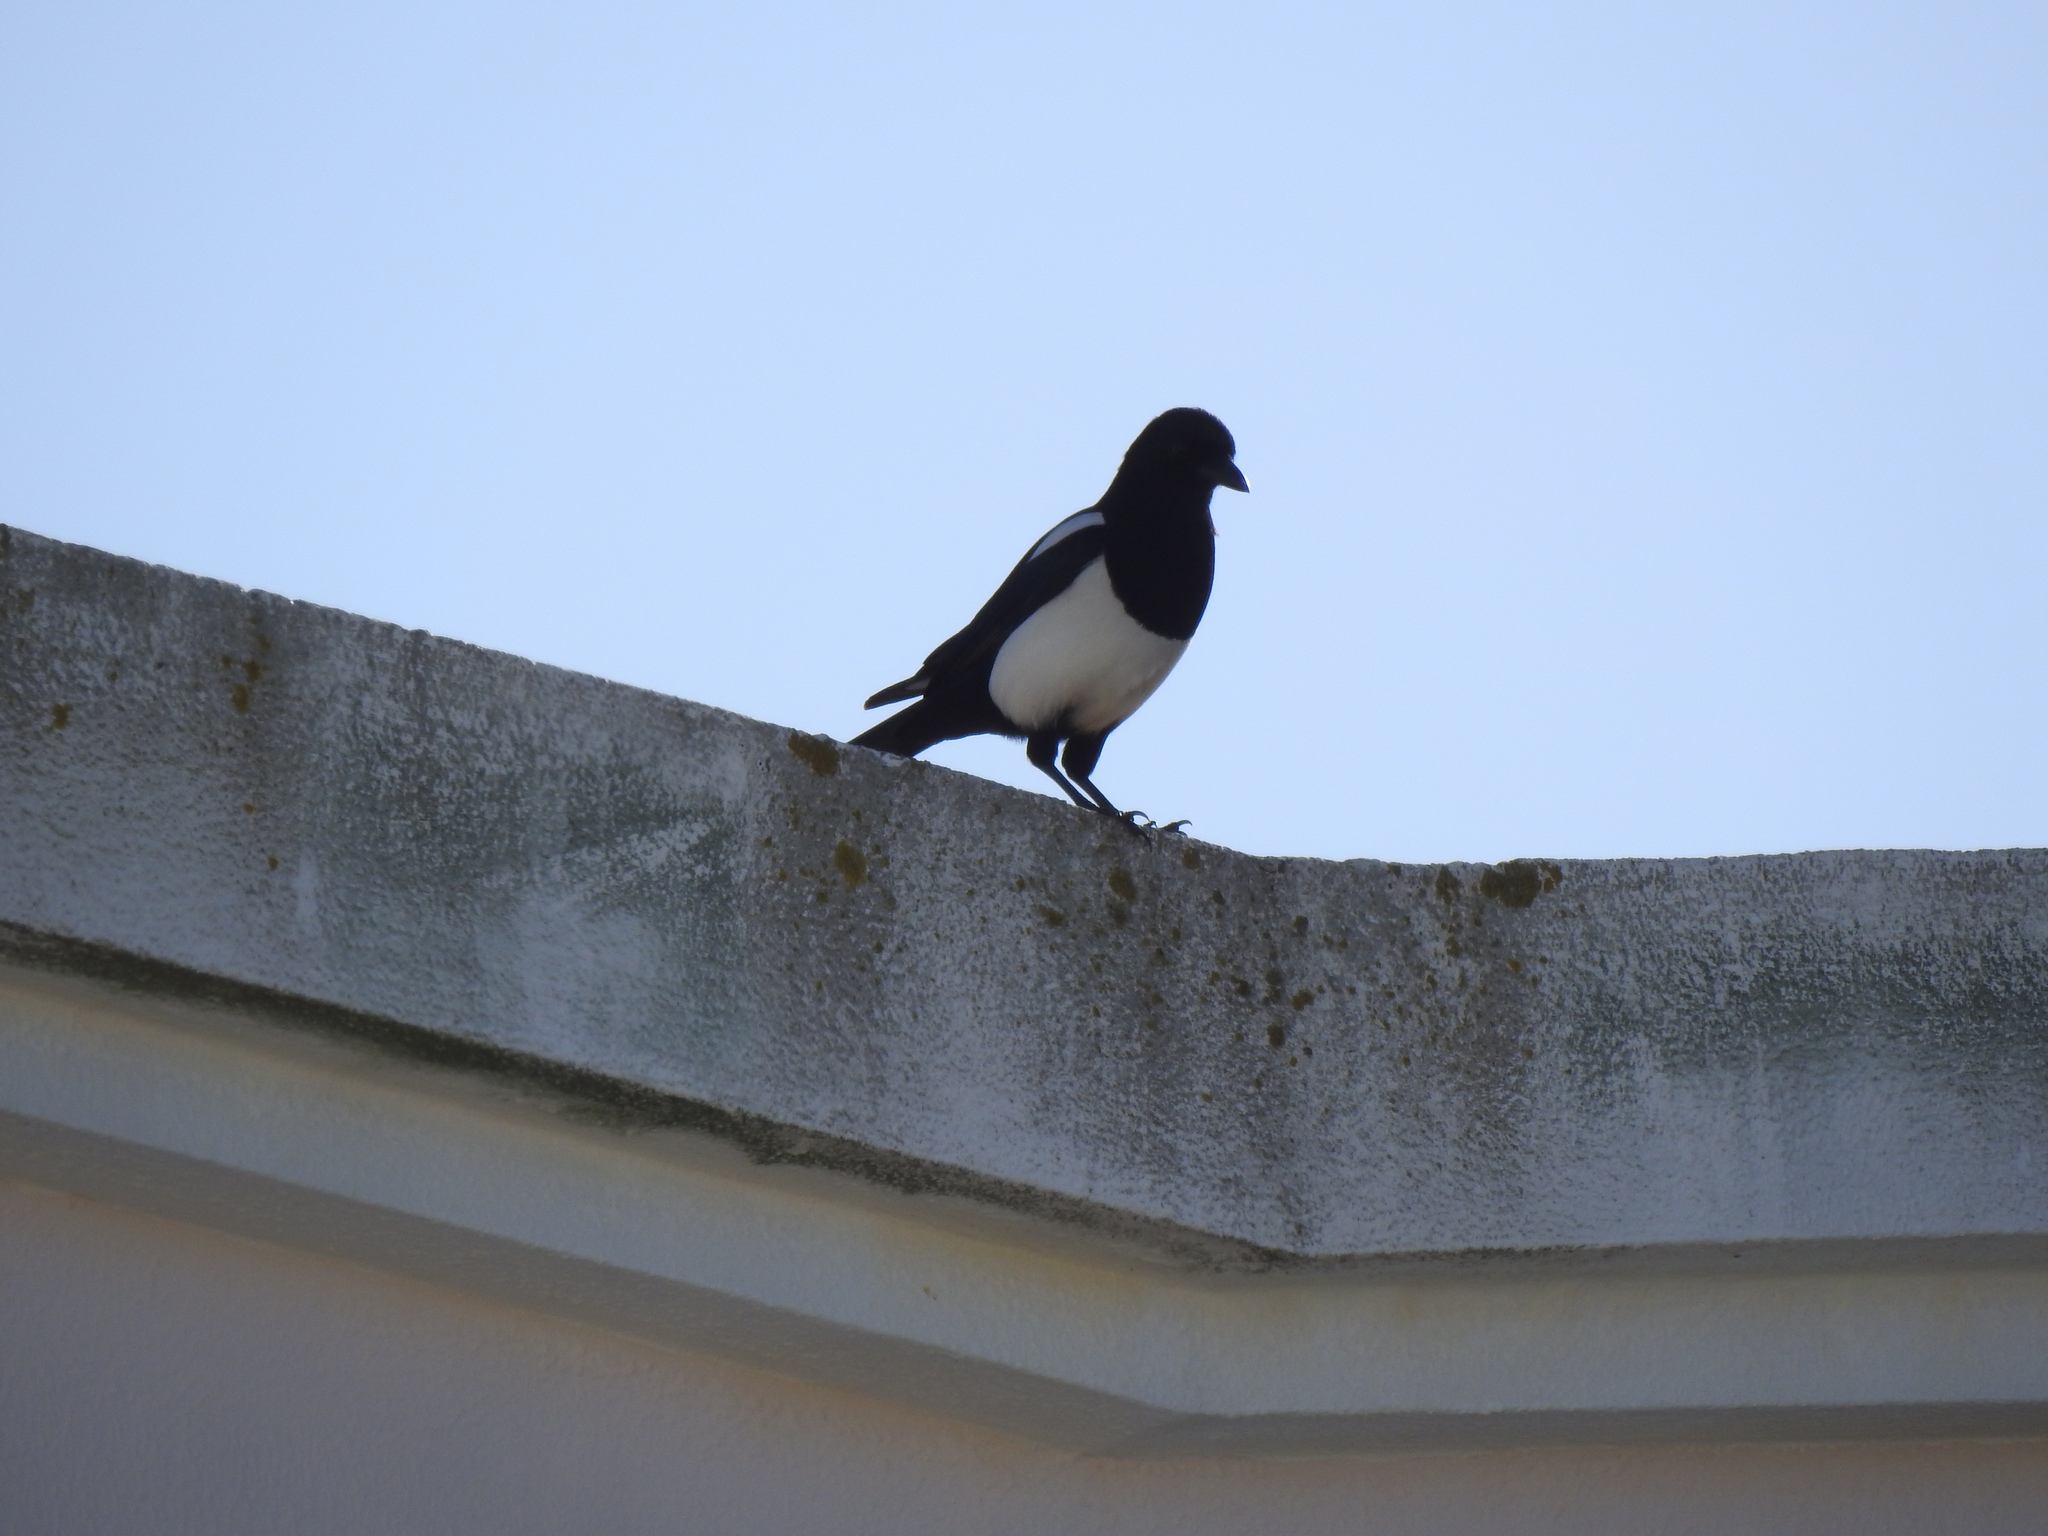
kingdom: Animalia
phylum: Chordata
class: Aves
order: Passeriformes
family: Corvidae
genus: Pica
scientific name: Pica pica
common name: Eurasian magpie
